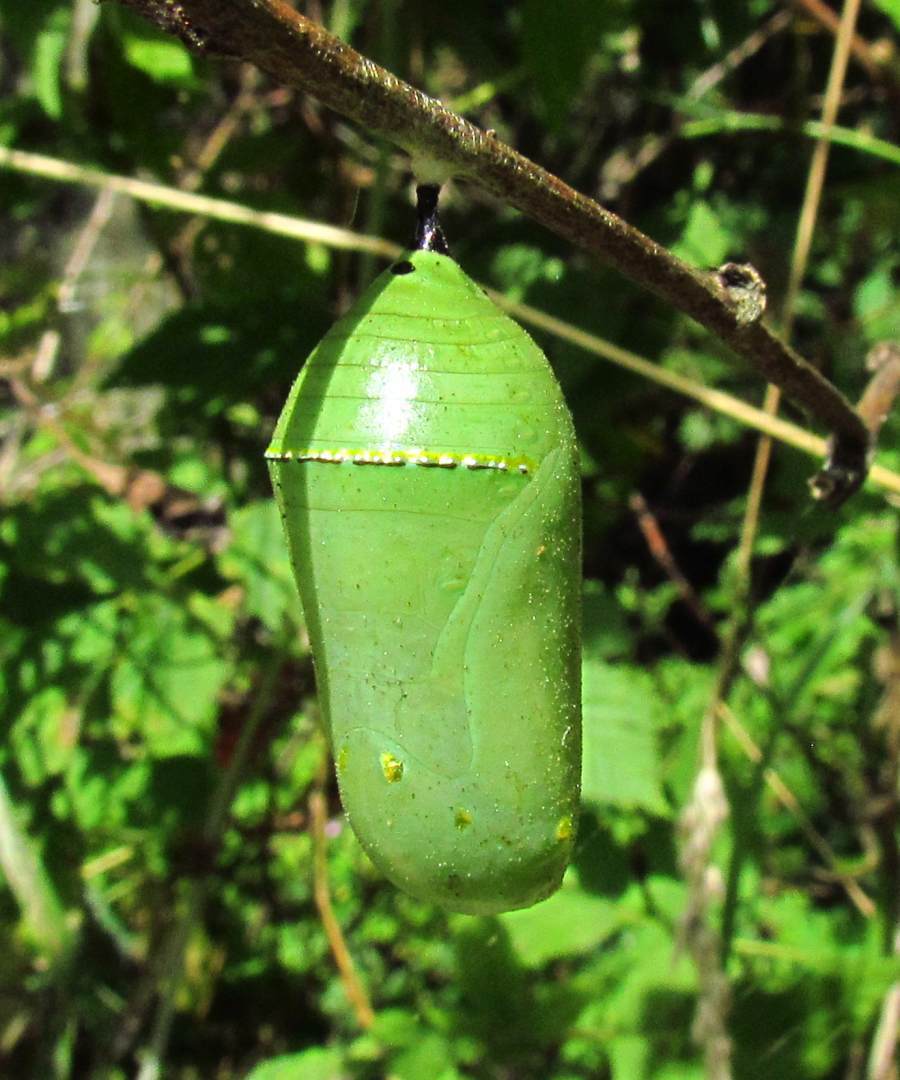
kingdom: Animalia
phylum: Arthropoda
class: Insecta
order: Lepidoptera
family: Nymphalidae
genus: Danaus
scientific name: Danaus plexippus
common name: Monarch
